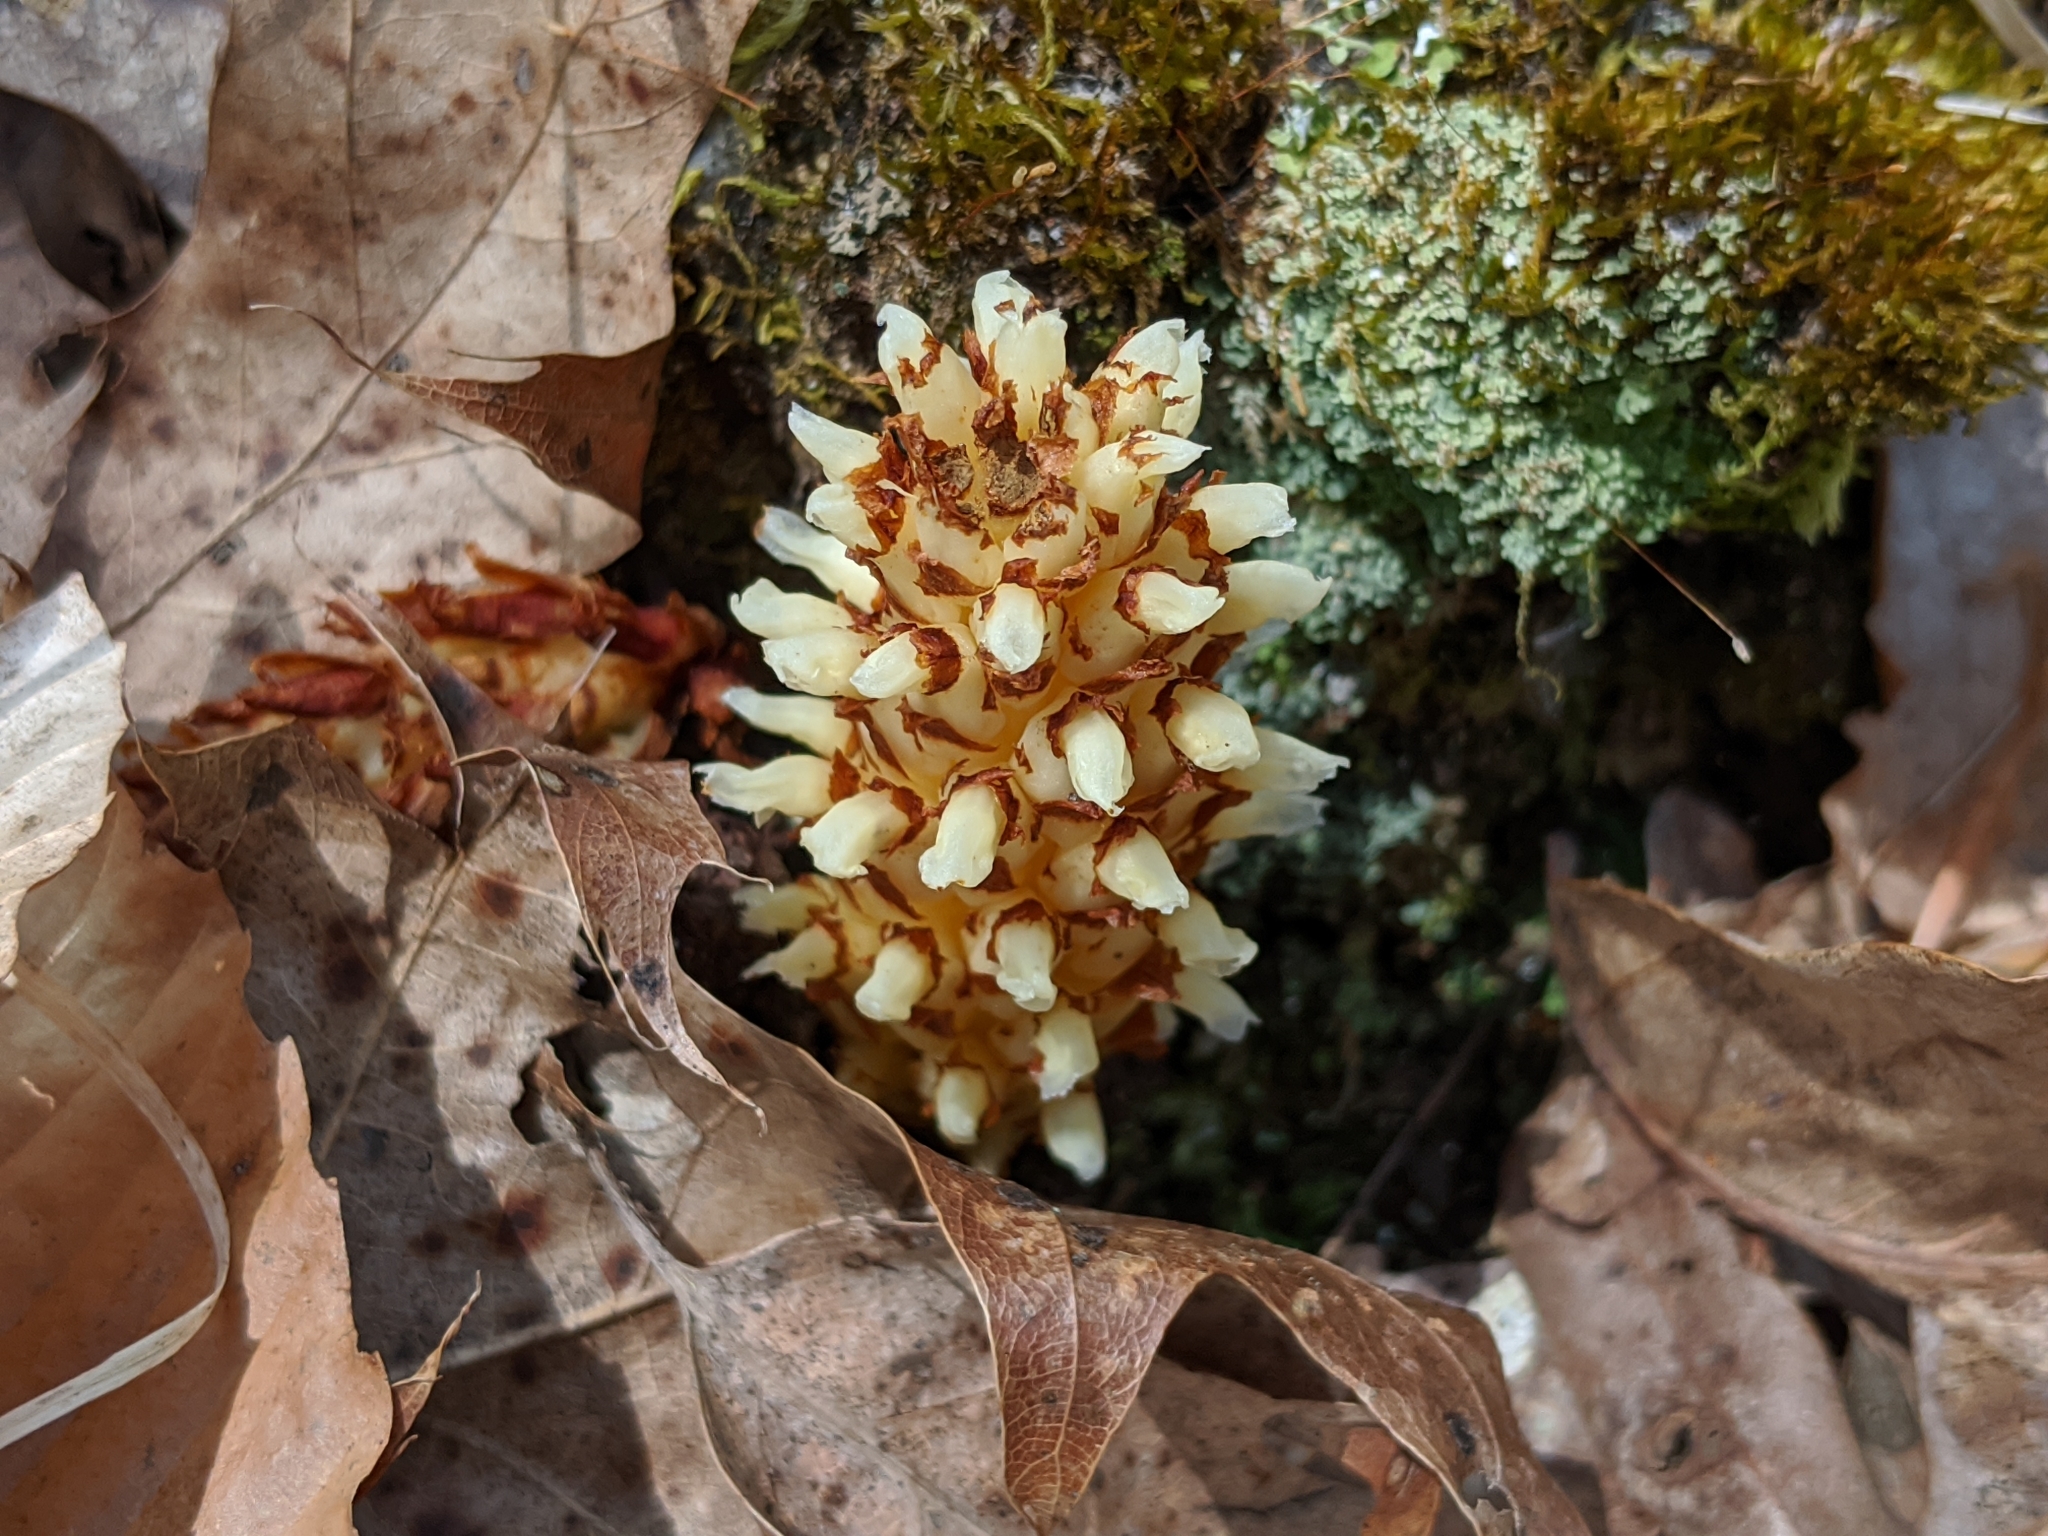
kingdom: Plantae
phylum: Tracheophyta
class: Magnoliopsida
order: Lamiales
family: Orobanchaceae
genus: Conopholis
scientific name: Conopholis americana
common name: American cancer-root
